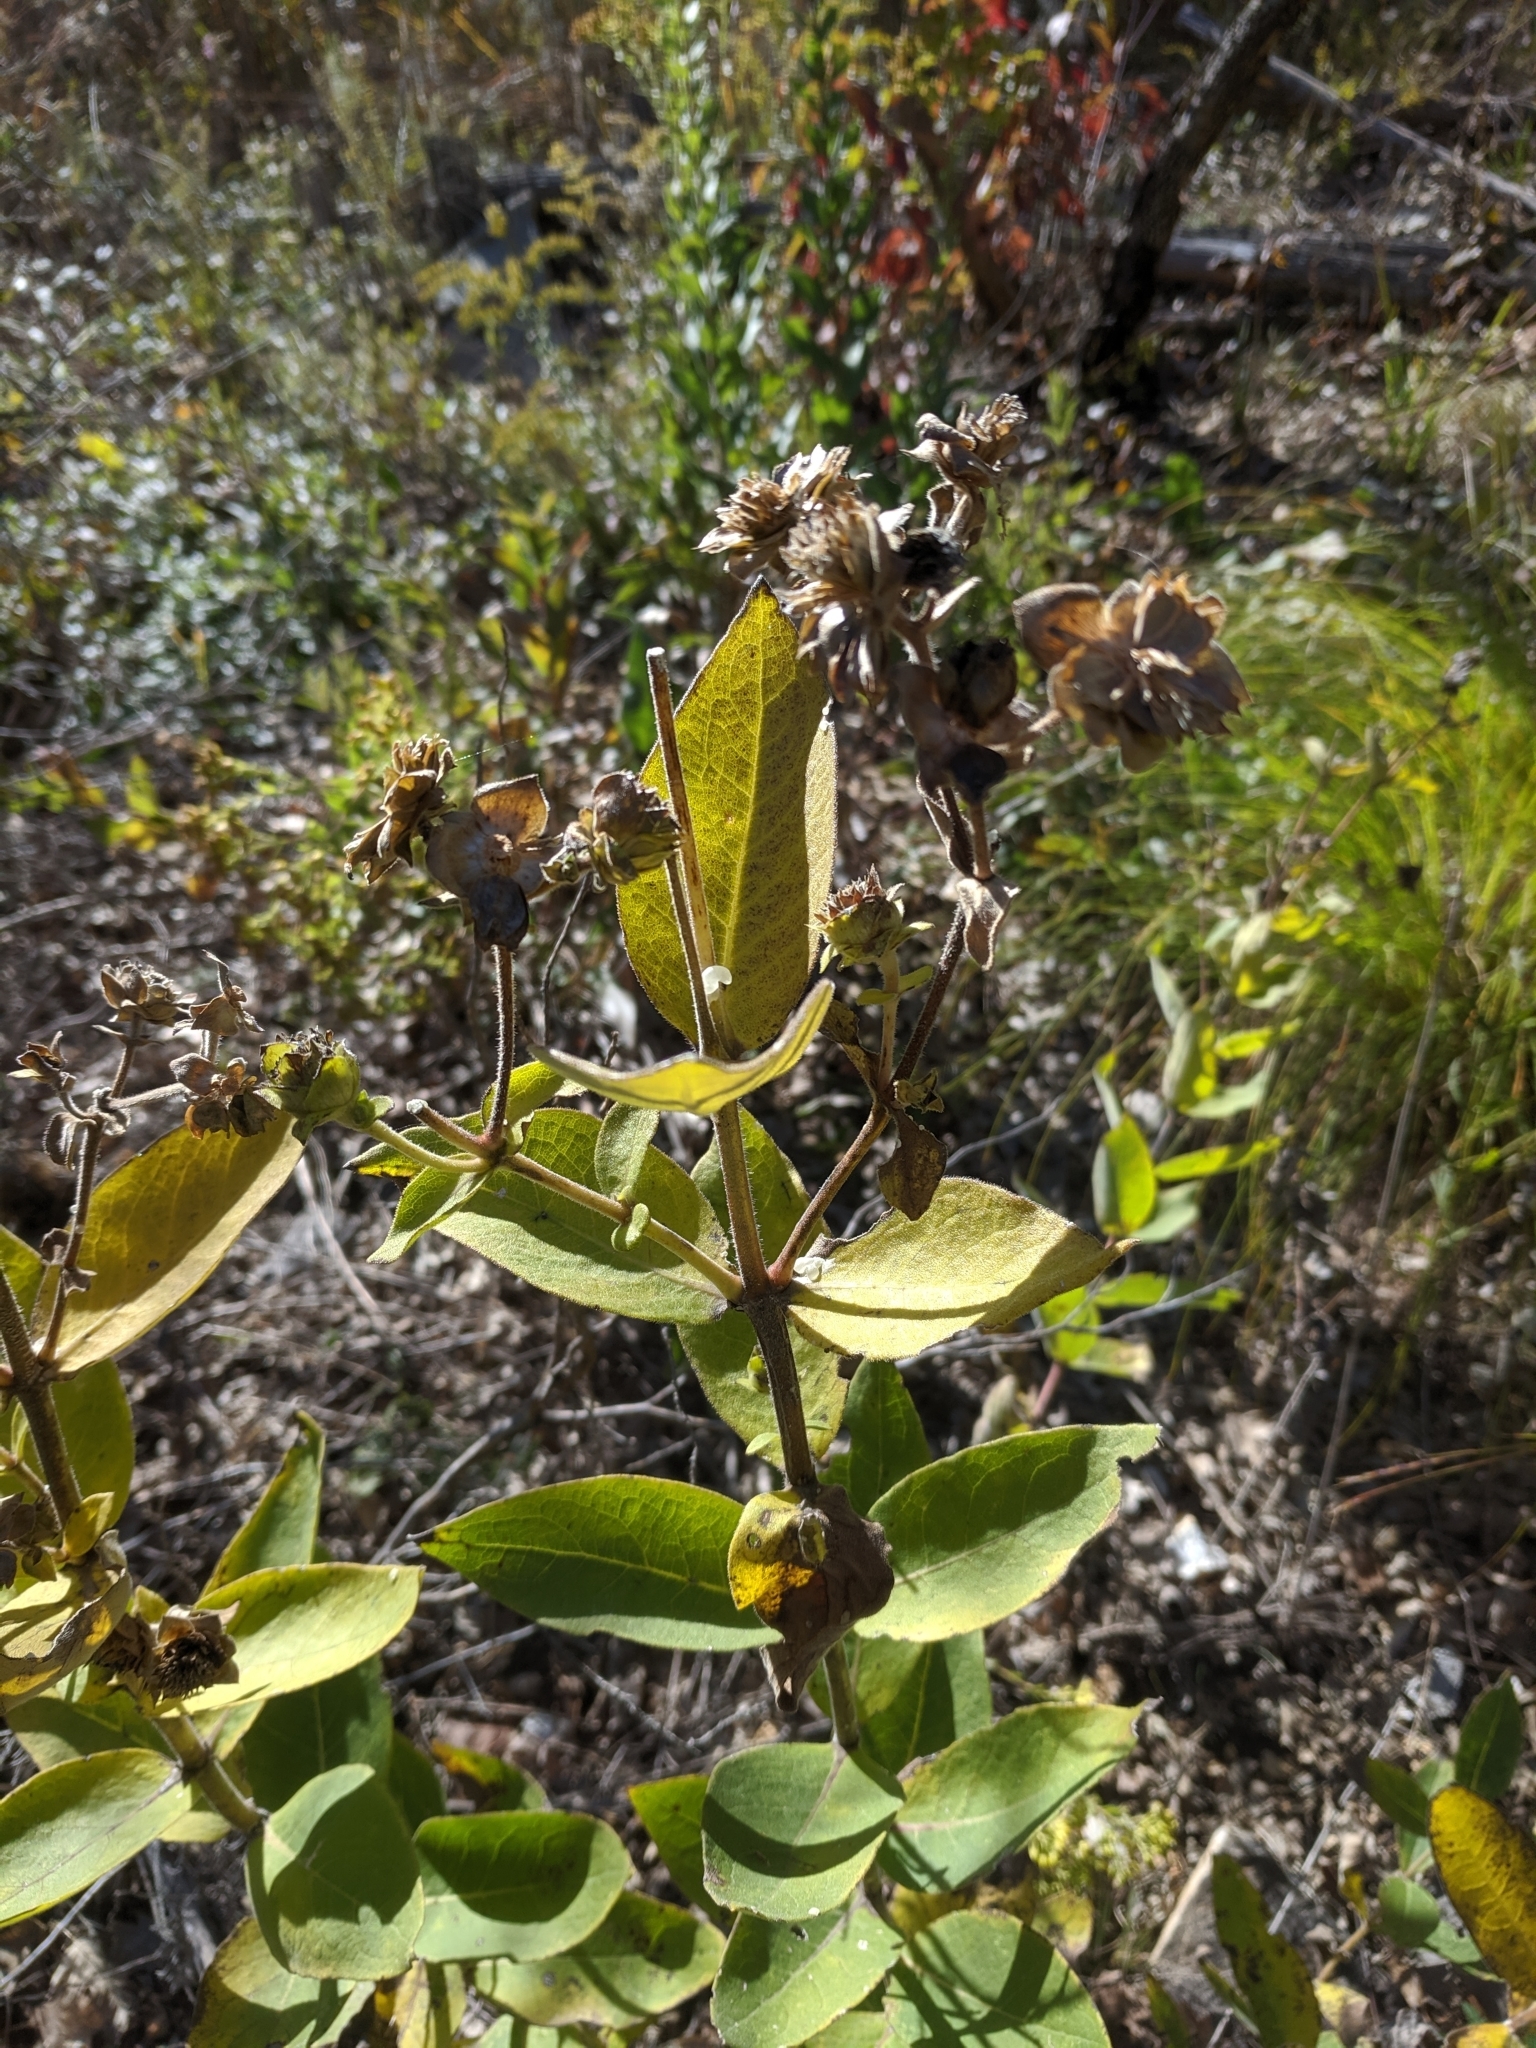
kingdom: Plantae
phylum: Tracheophyta
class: Magnoliopsida
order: Asterales
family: Asteraceae
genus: Silphium
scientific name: Silphium integrifolium
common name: Whole-leaf rosinweed
